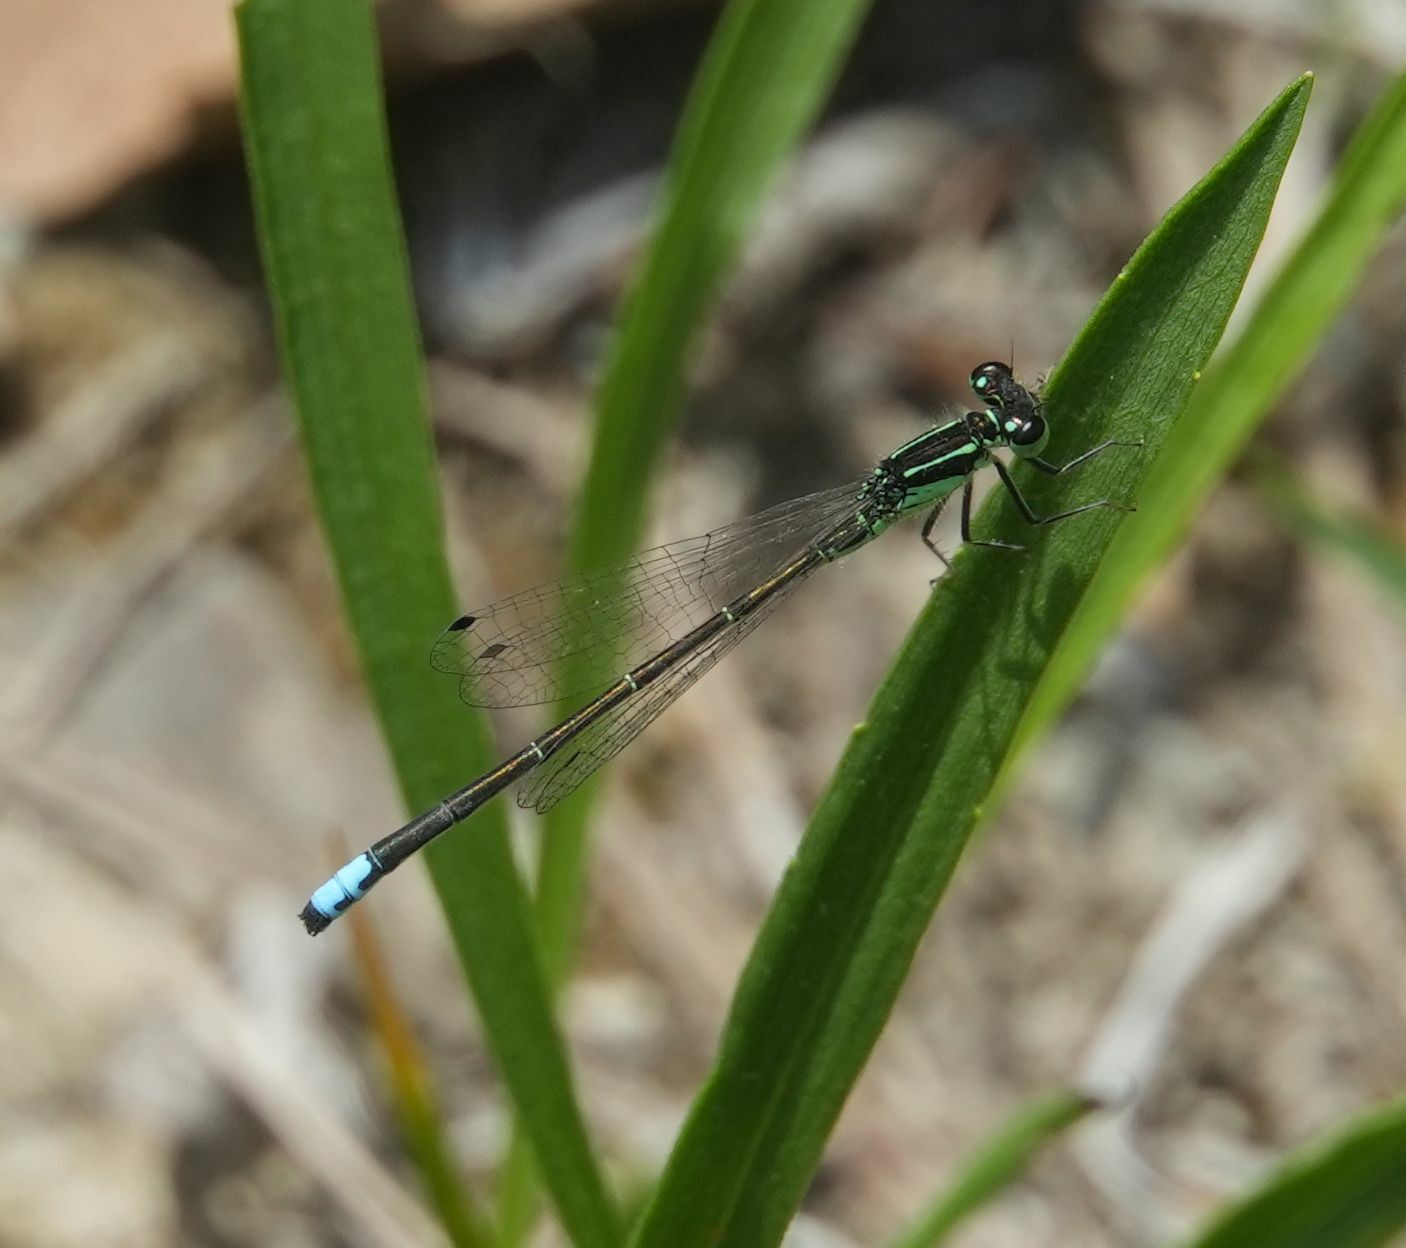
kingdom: Animalia
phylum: Arthropoda
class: Insecta
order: Odonata
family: Coenagrionidae
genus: Ischnura
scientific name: Ischnura verticalis
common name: Eastern forktail
